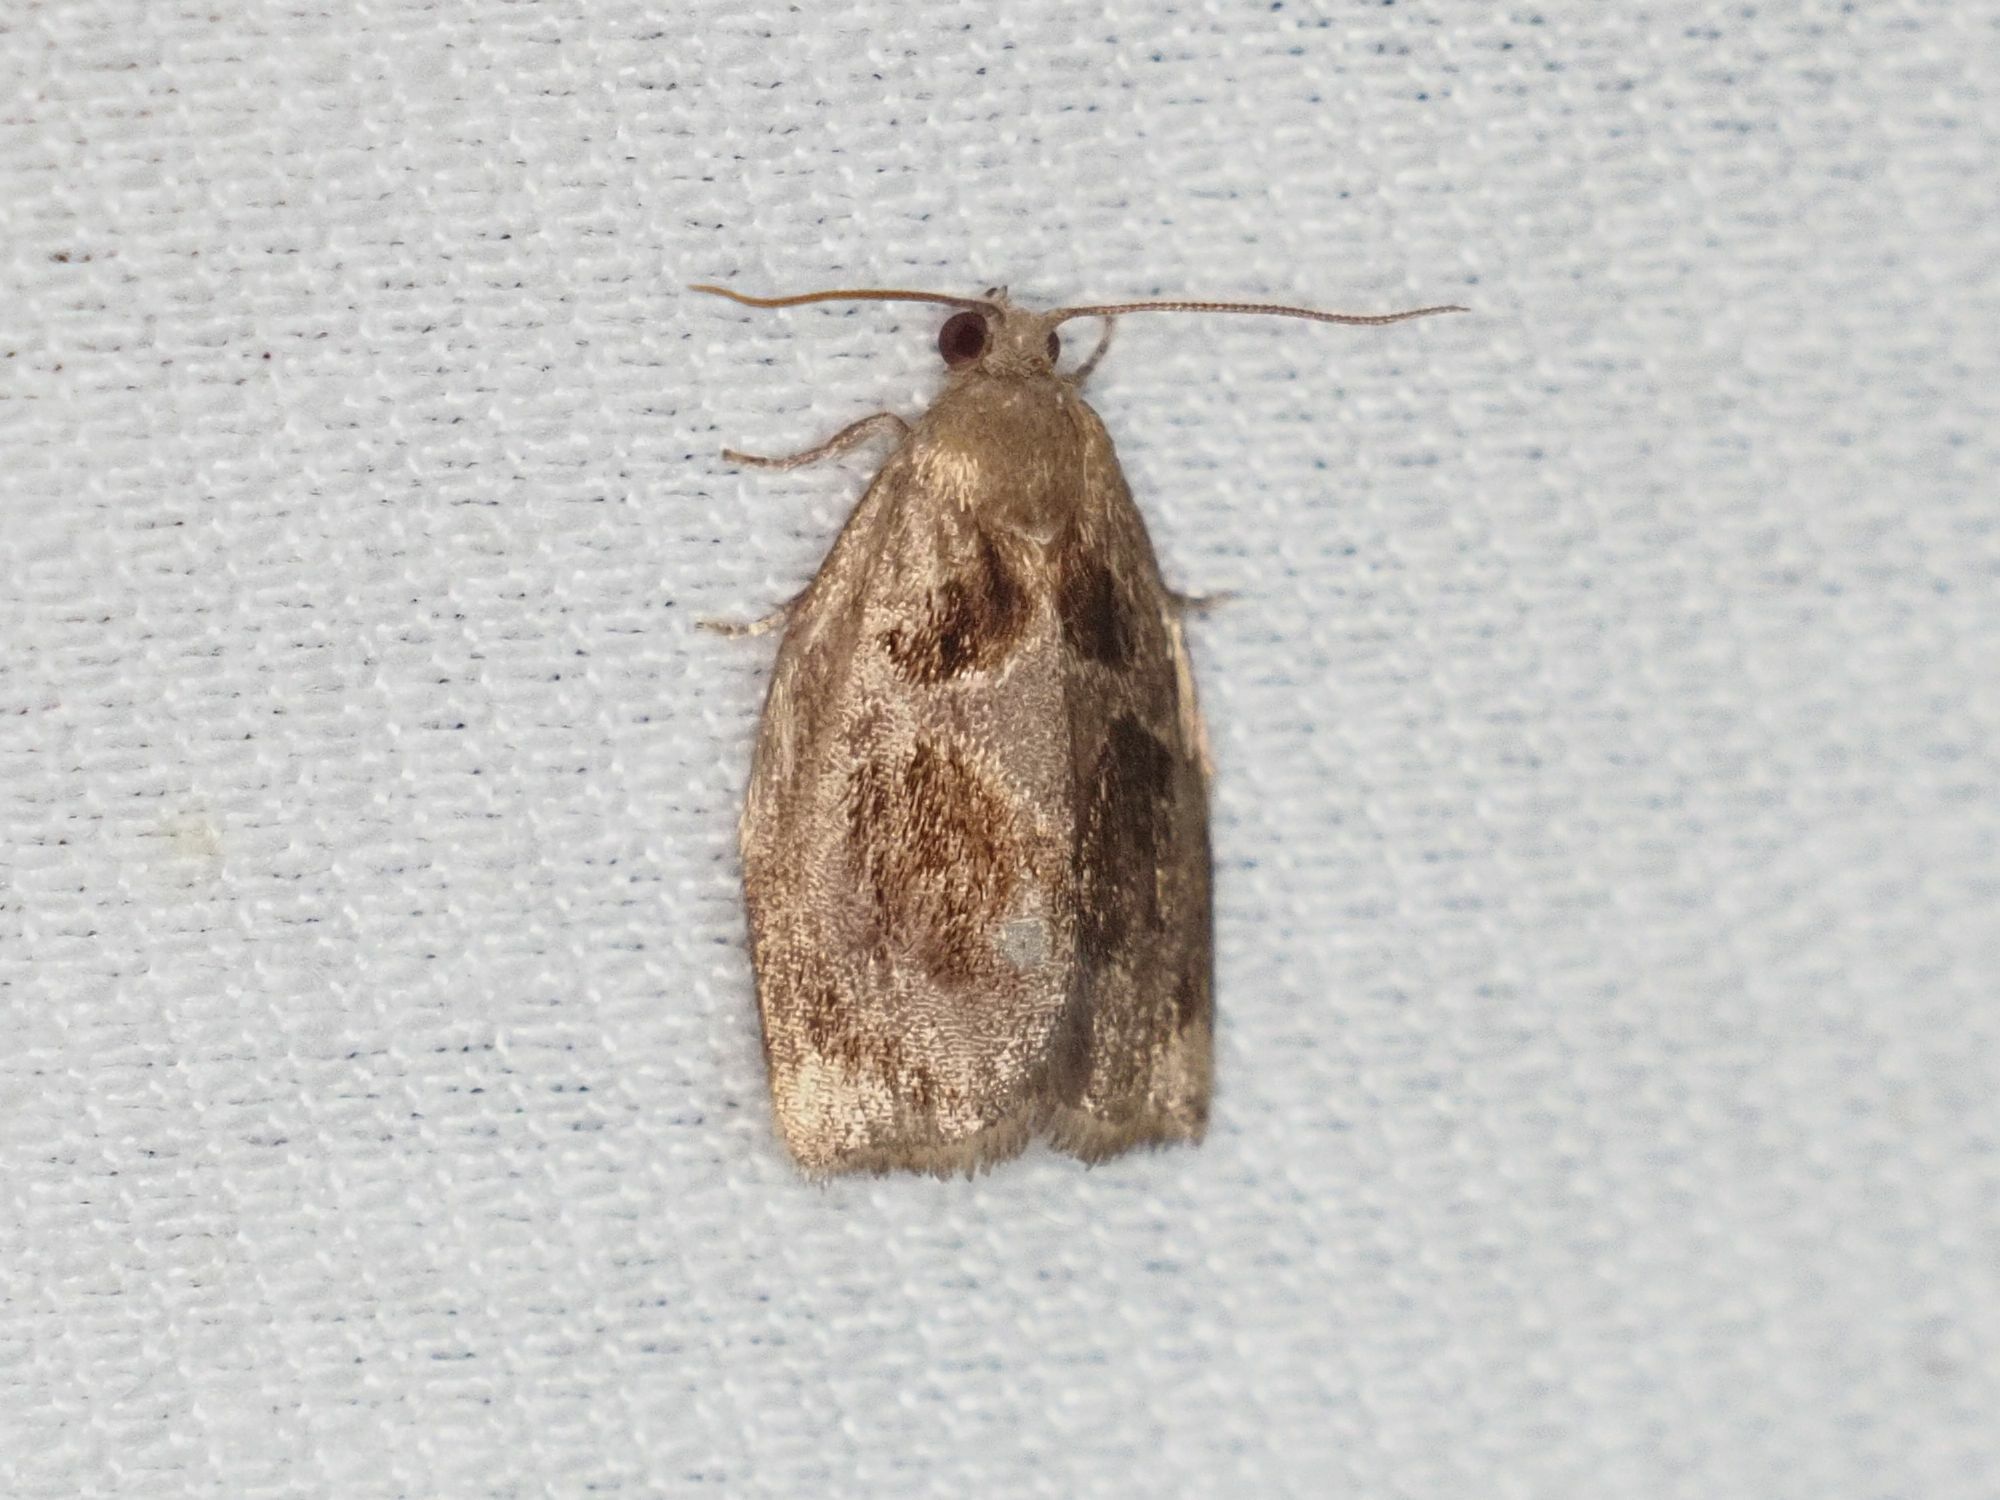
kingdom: Animalia
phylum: Arthropoda
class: Insecta
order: Lepidoptera
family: Tortricidae
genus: Archips
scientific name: Archips crataegana
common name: Brown oak tortrix
